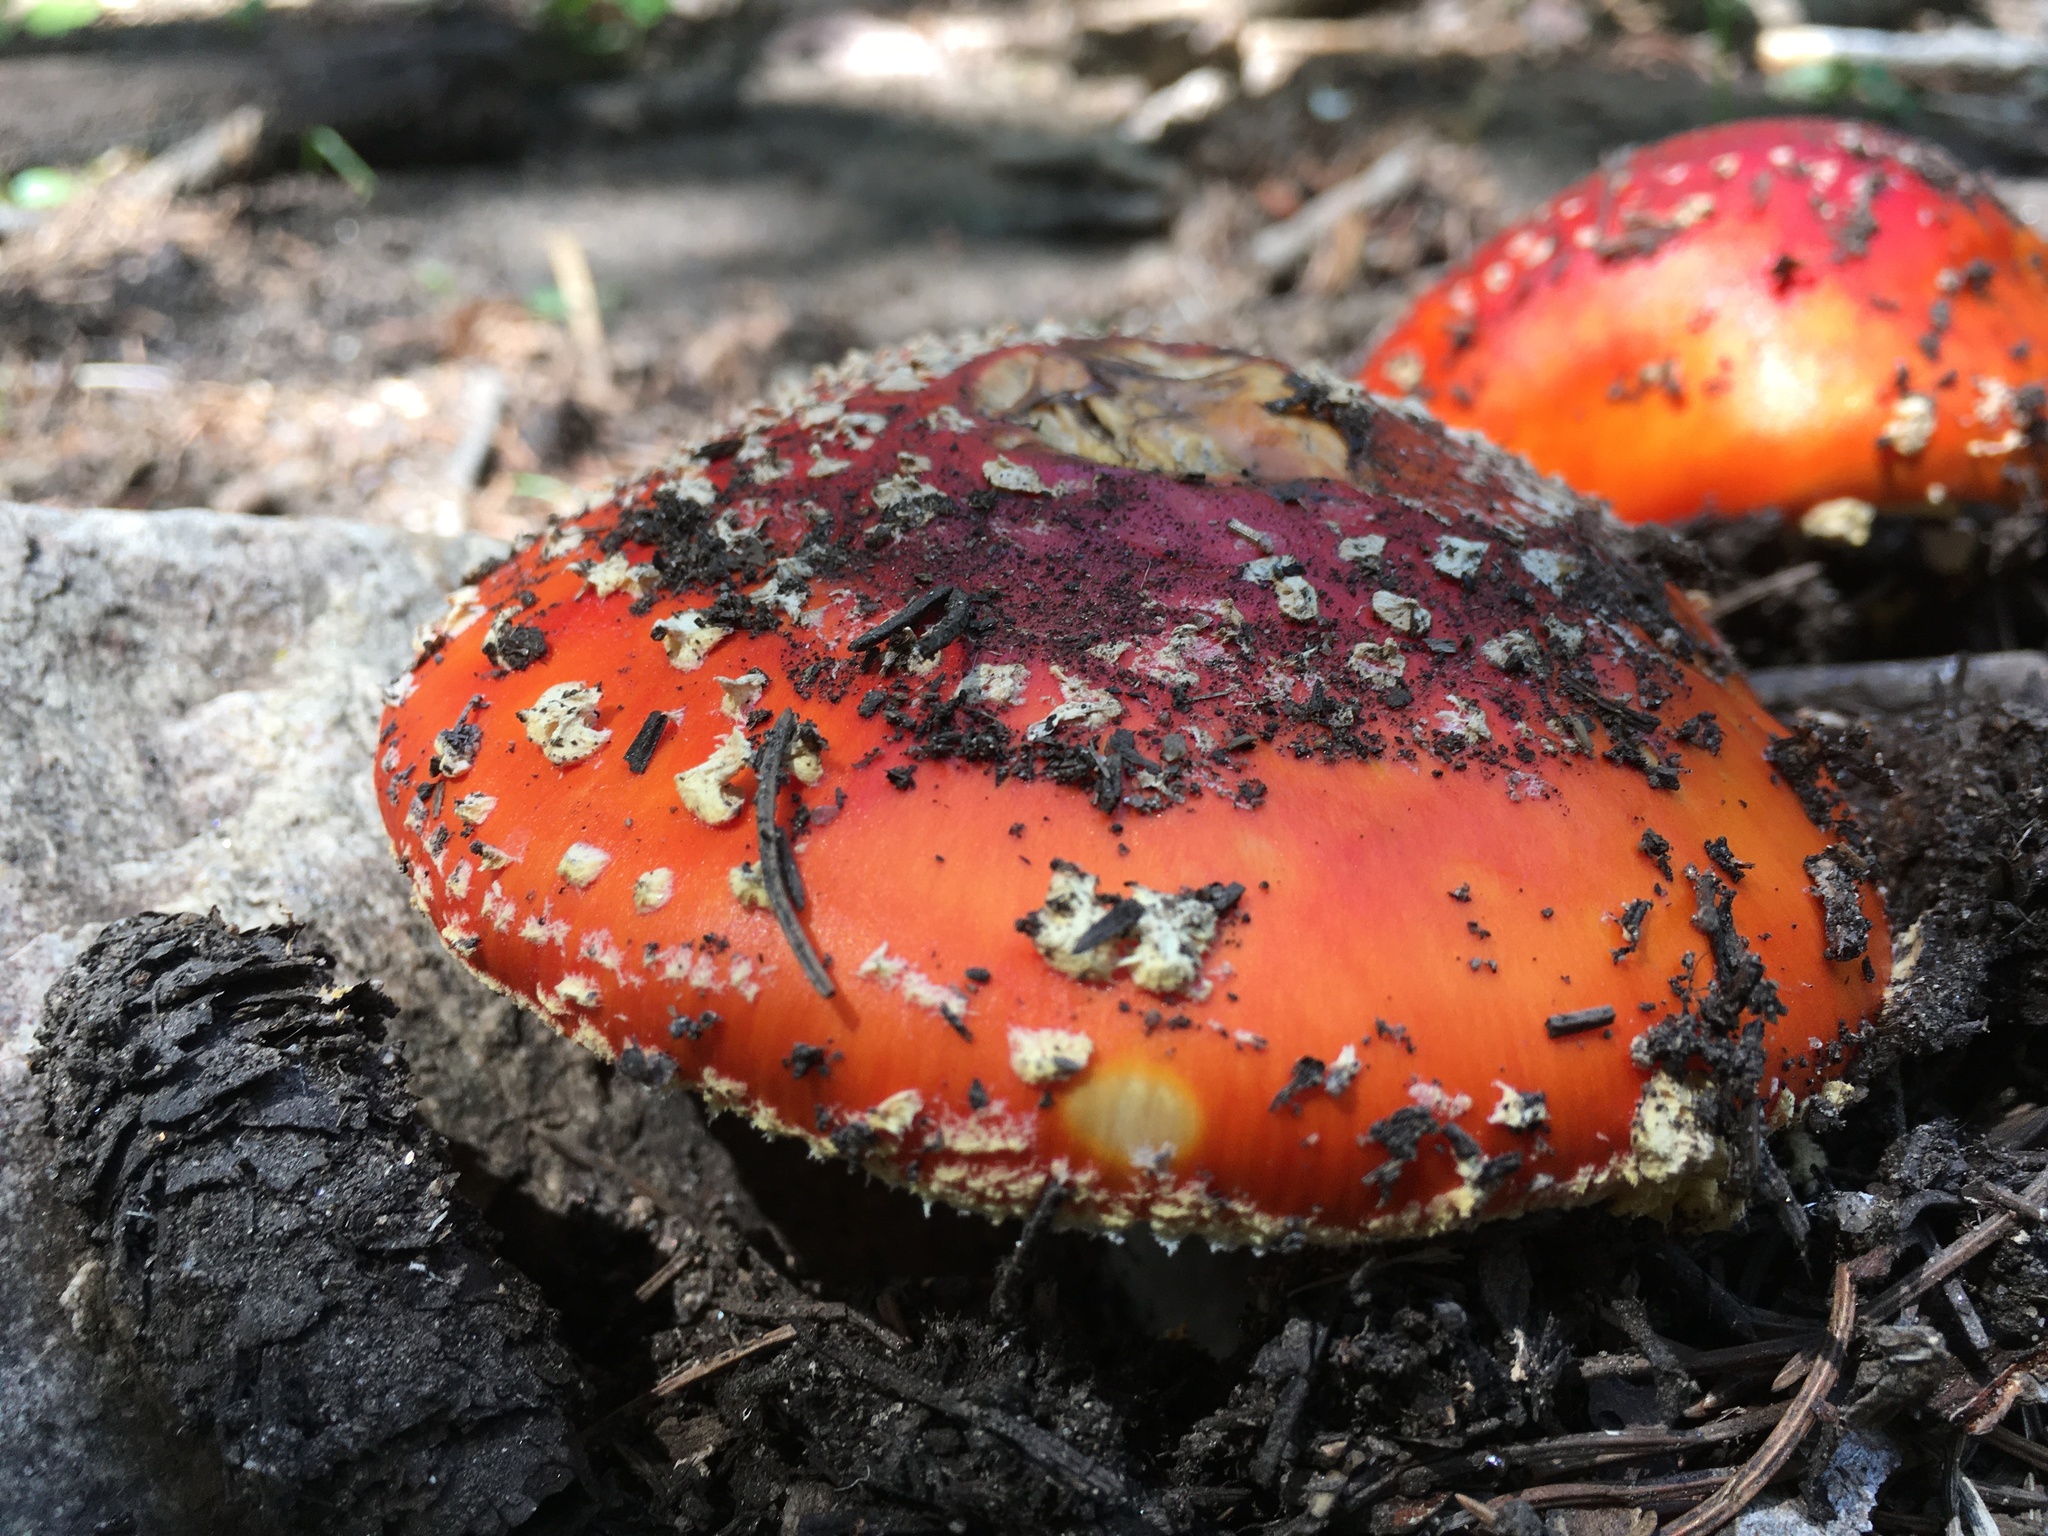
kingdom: Fungi
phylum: Basidiomycota
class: Agaricomycetes
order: Agaricales
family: Amanitaceae
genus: Amanita
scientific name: Amanita muscaria
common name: Fly agaric
